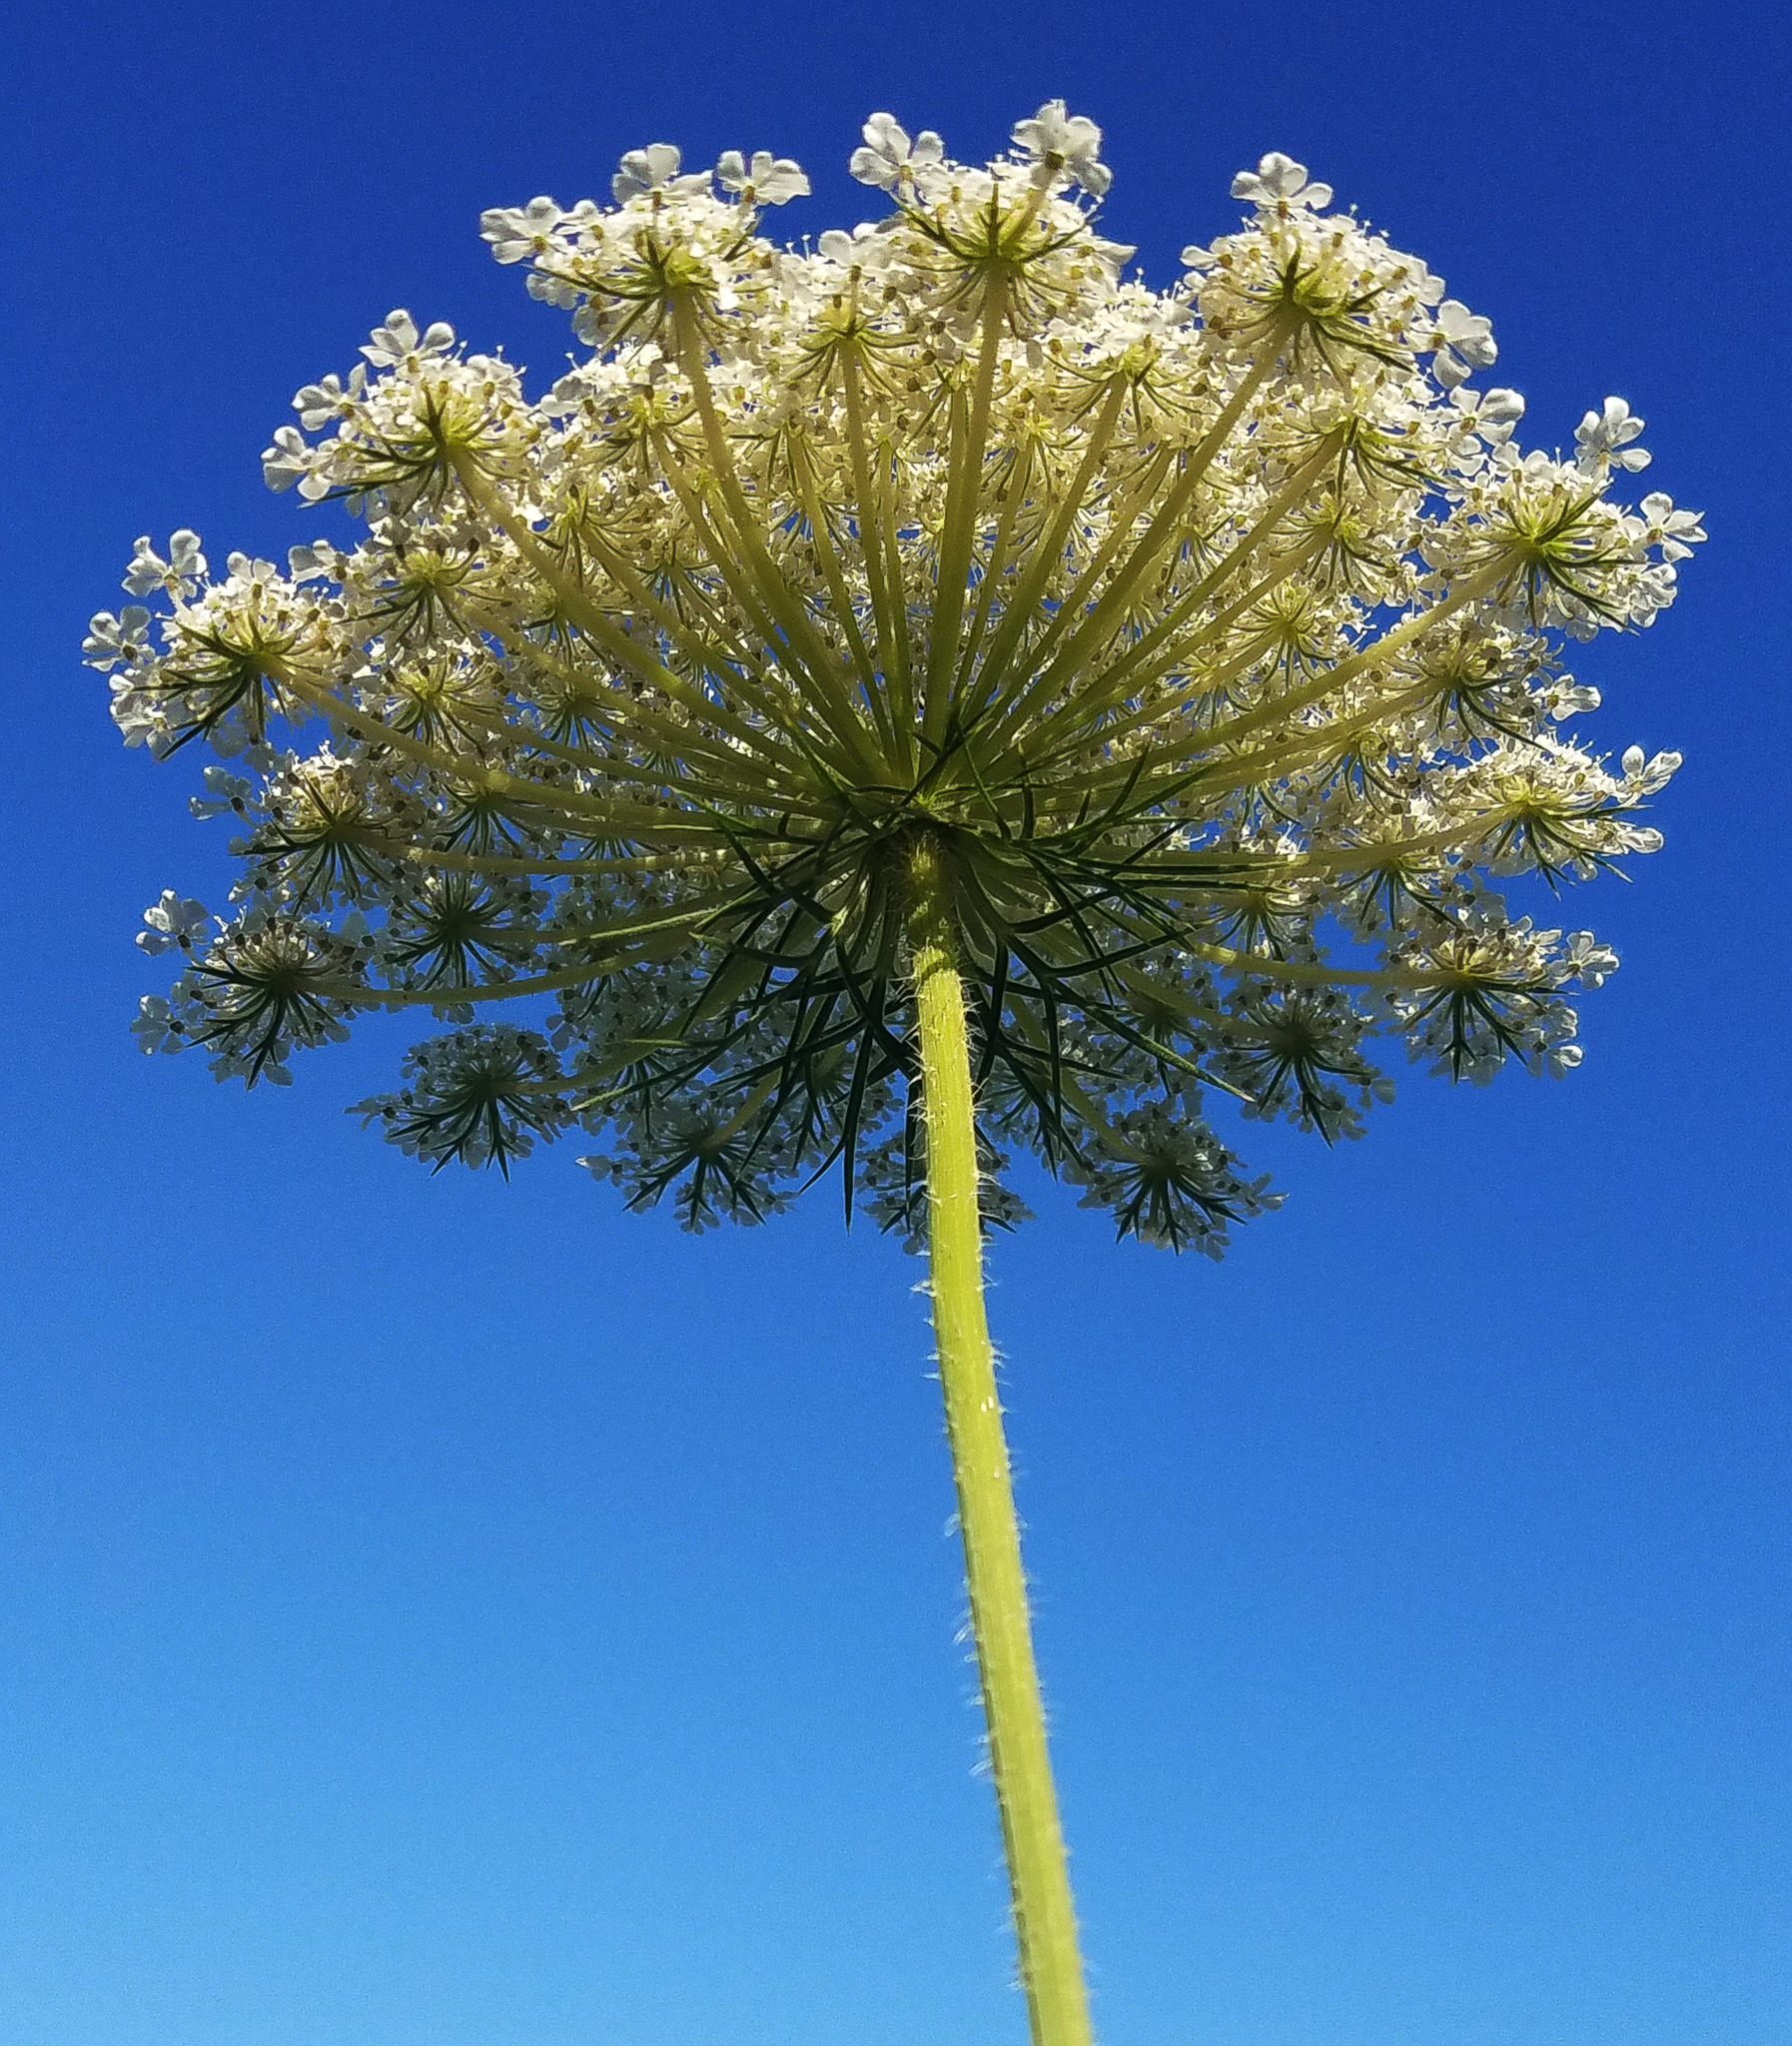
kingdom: Plantae
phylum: Tracheophyta
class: Magnoliopsida
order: Apiales
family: Apiaceae
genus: Daucus
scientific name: Daucus carota
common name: Wild carrot
